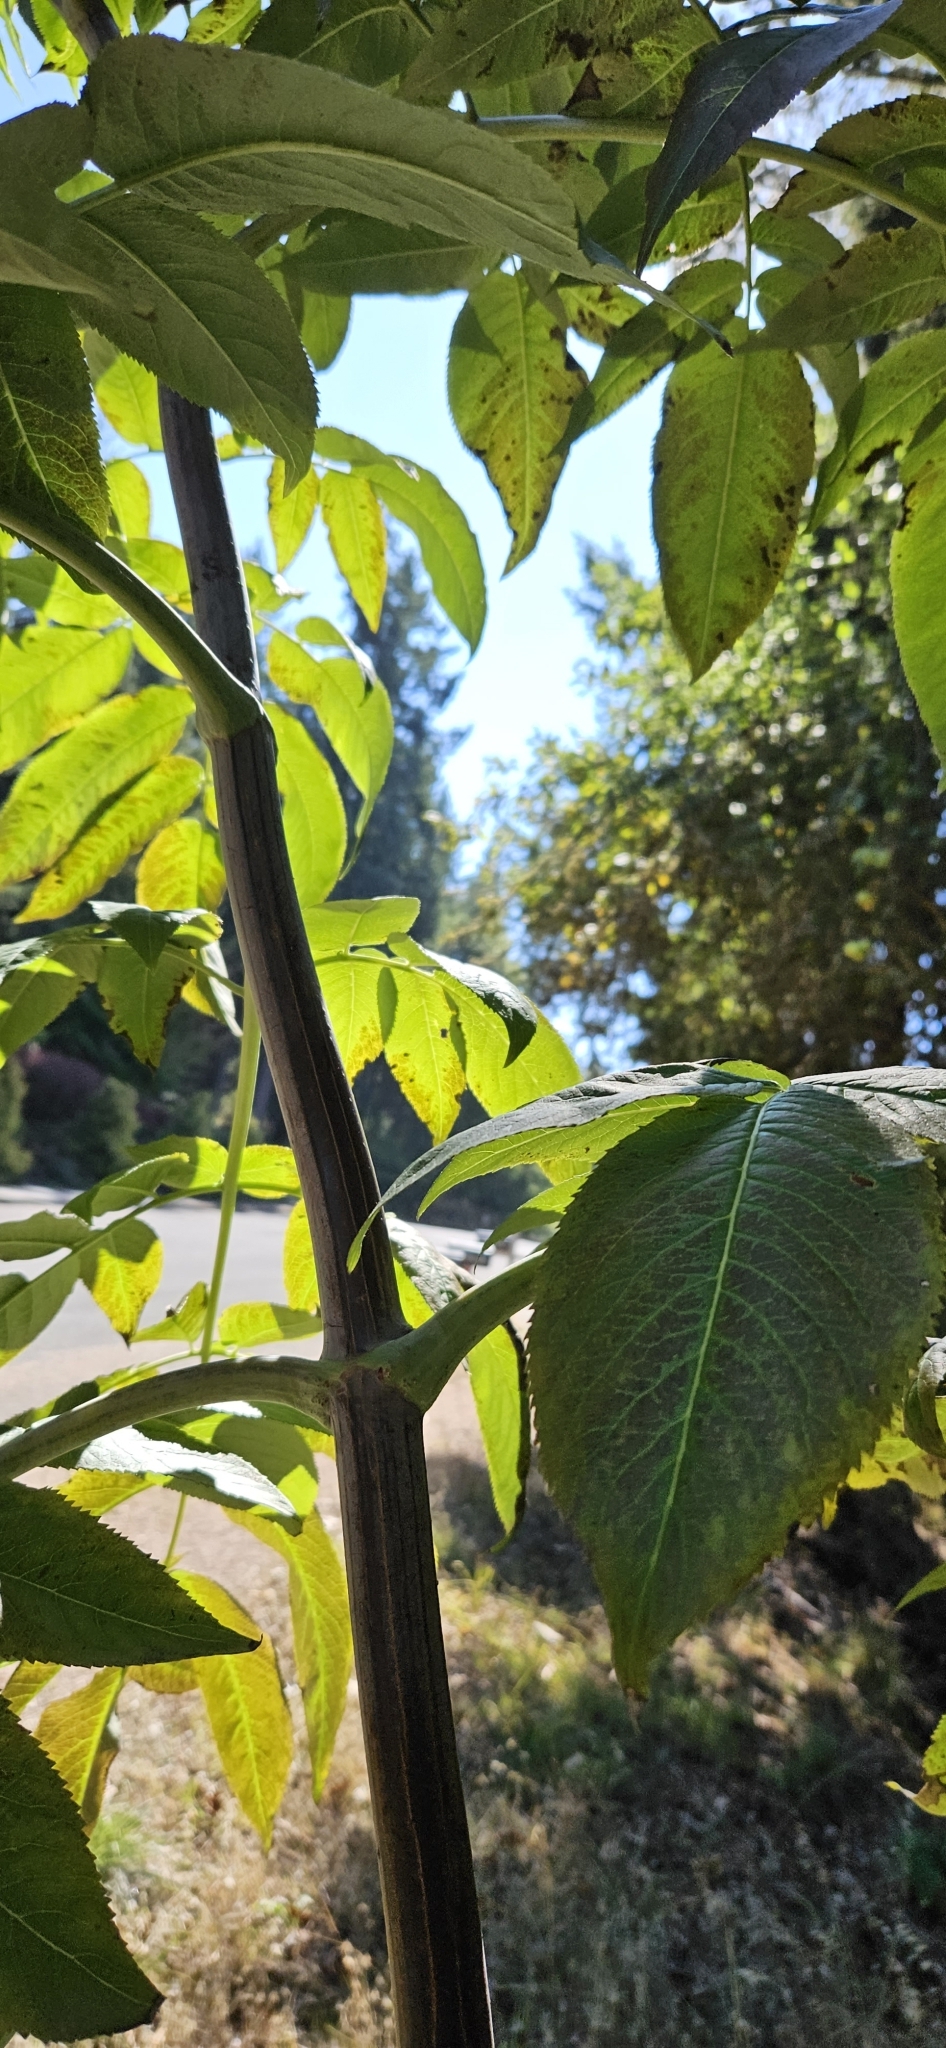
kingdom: Plantae
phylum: Tracheophyta
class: Magnoliopsida
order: Dipsacales
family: Viburnaceae
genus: Sambucus
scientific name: Sambucus cerulea
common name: Blue elder
